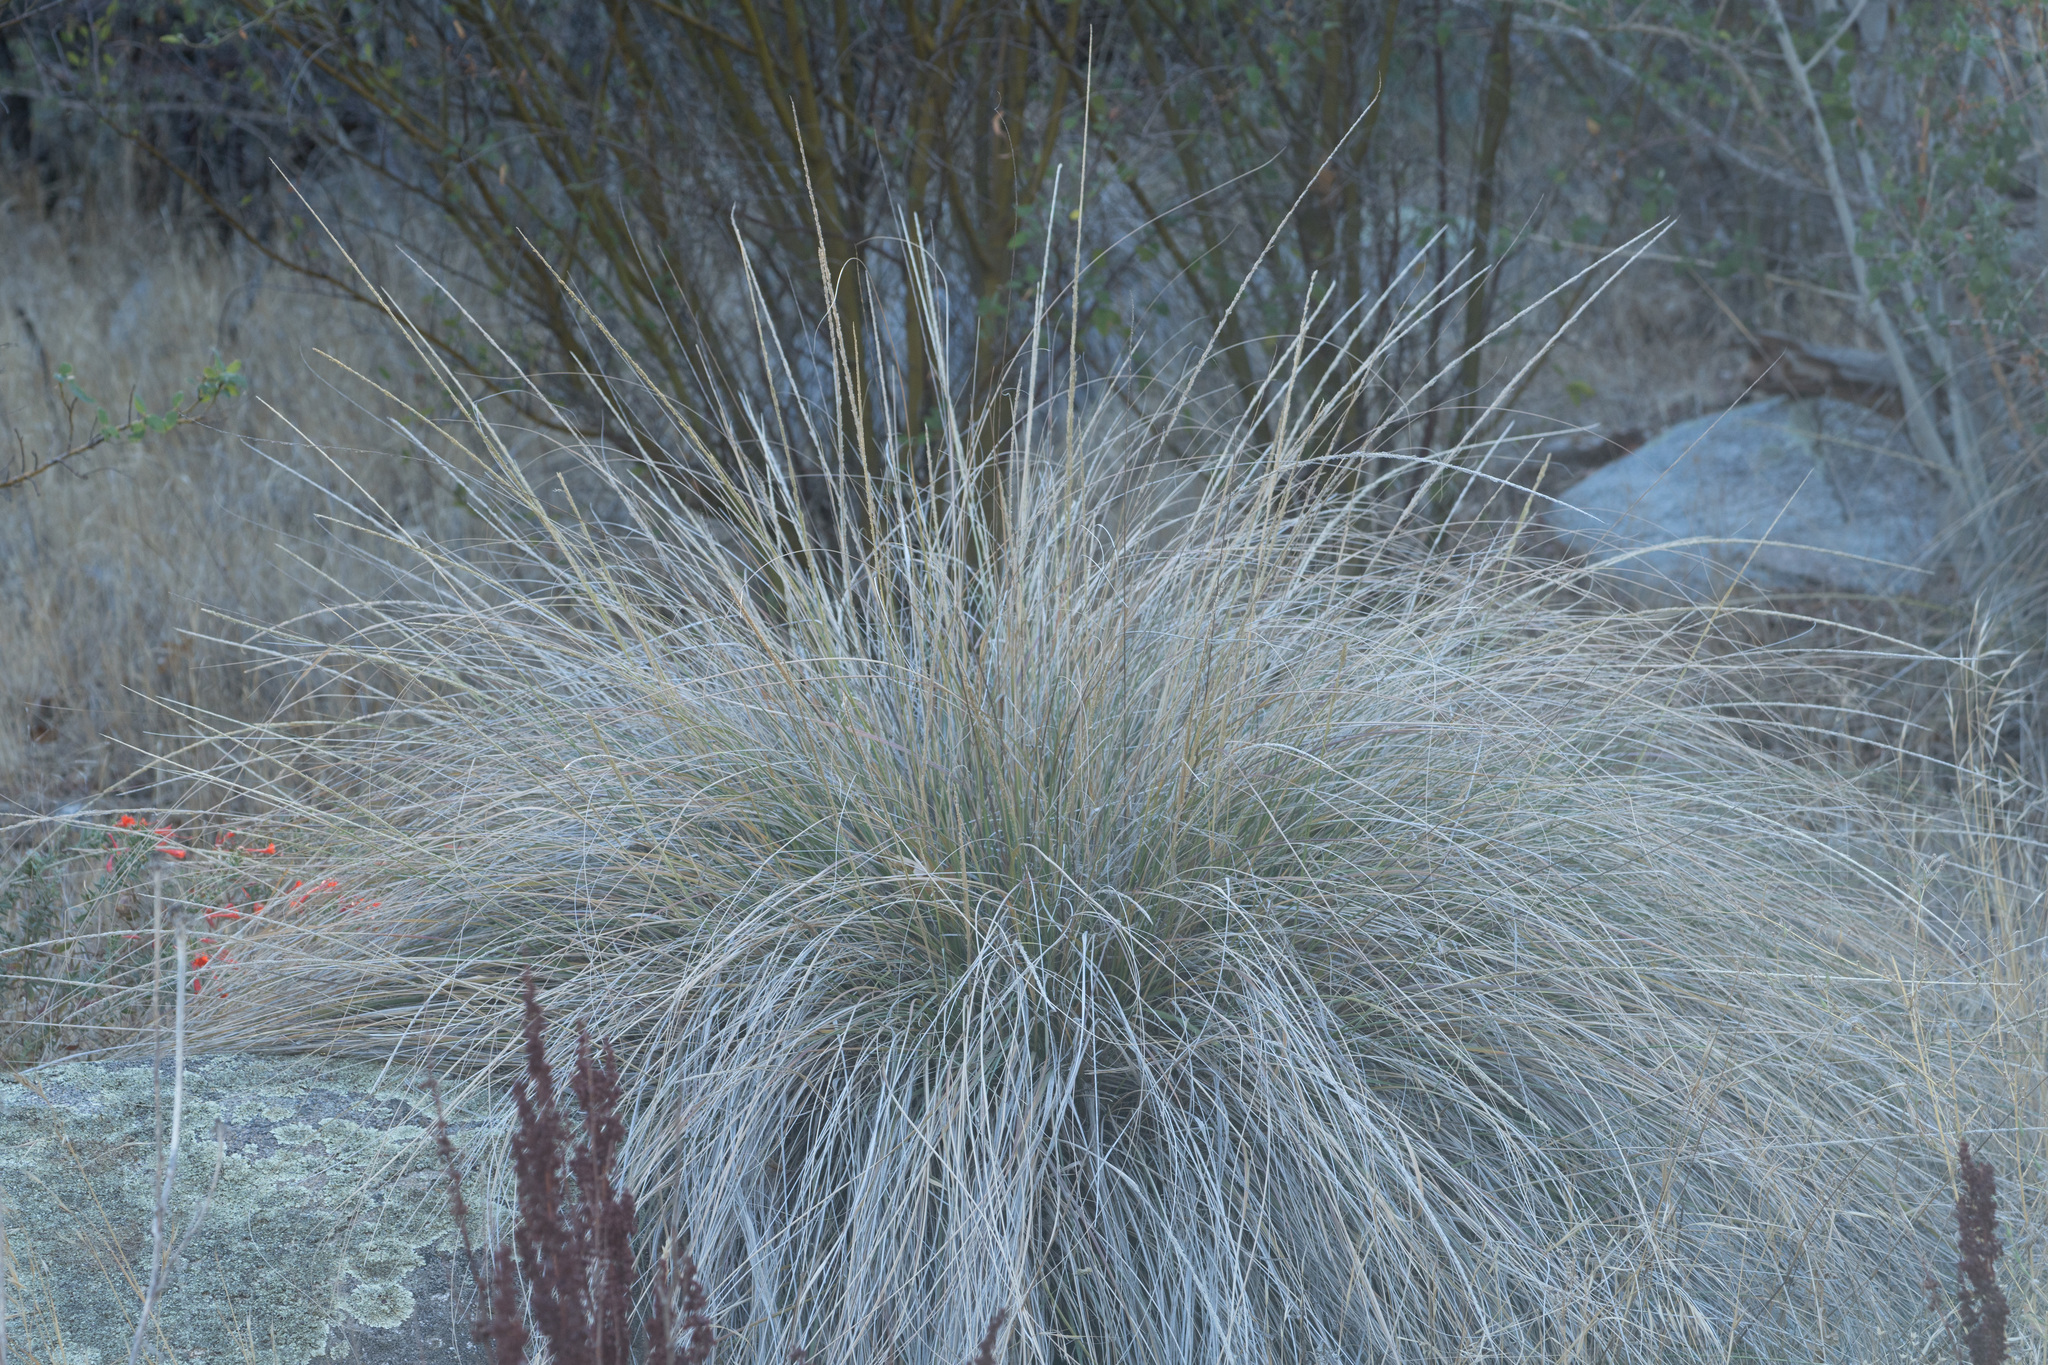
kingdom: Plantae
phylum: Tracheophyta
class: Liliopsida
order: Poales
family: Poaceae
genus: Muhlenbergia
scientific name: Muhlenbergia rigens
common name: Deer grass
